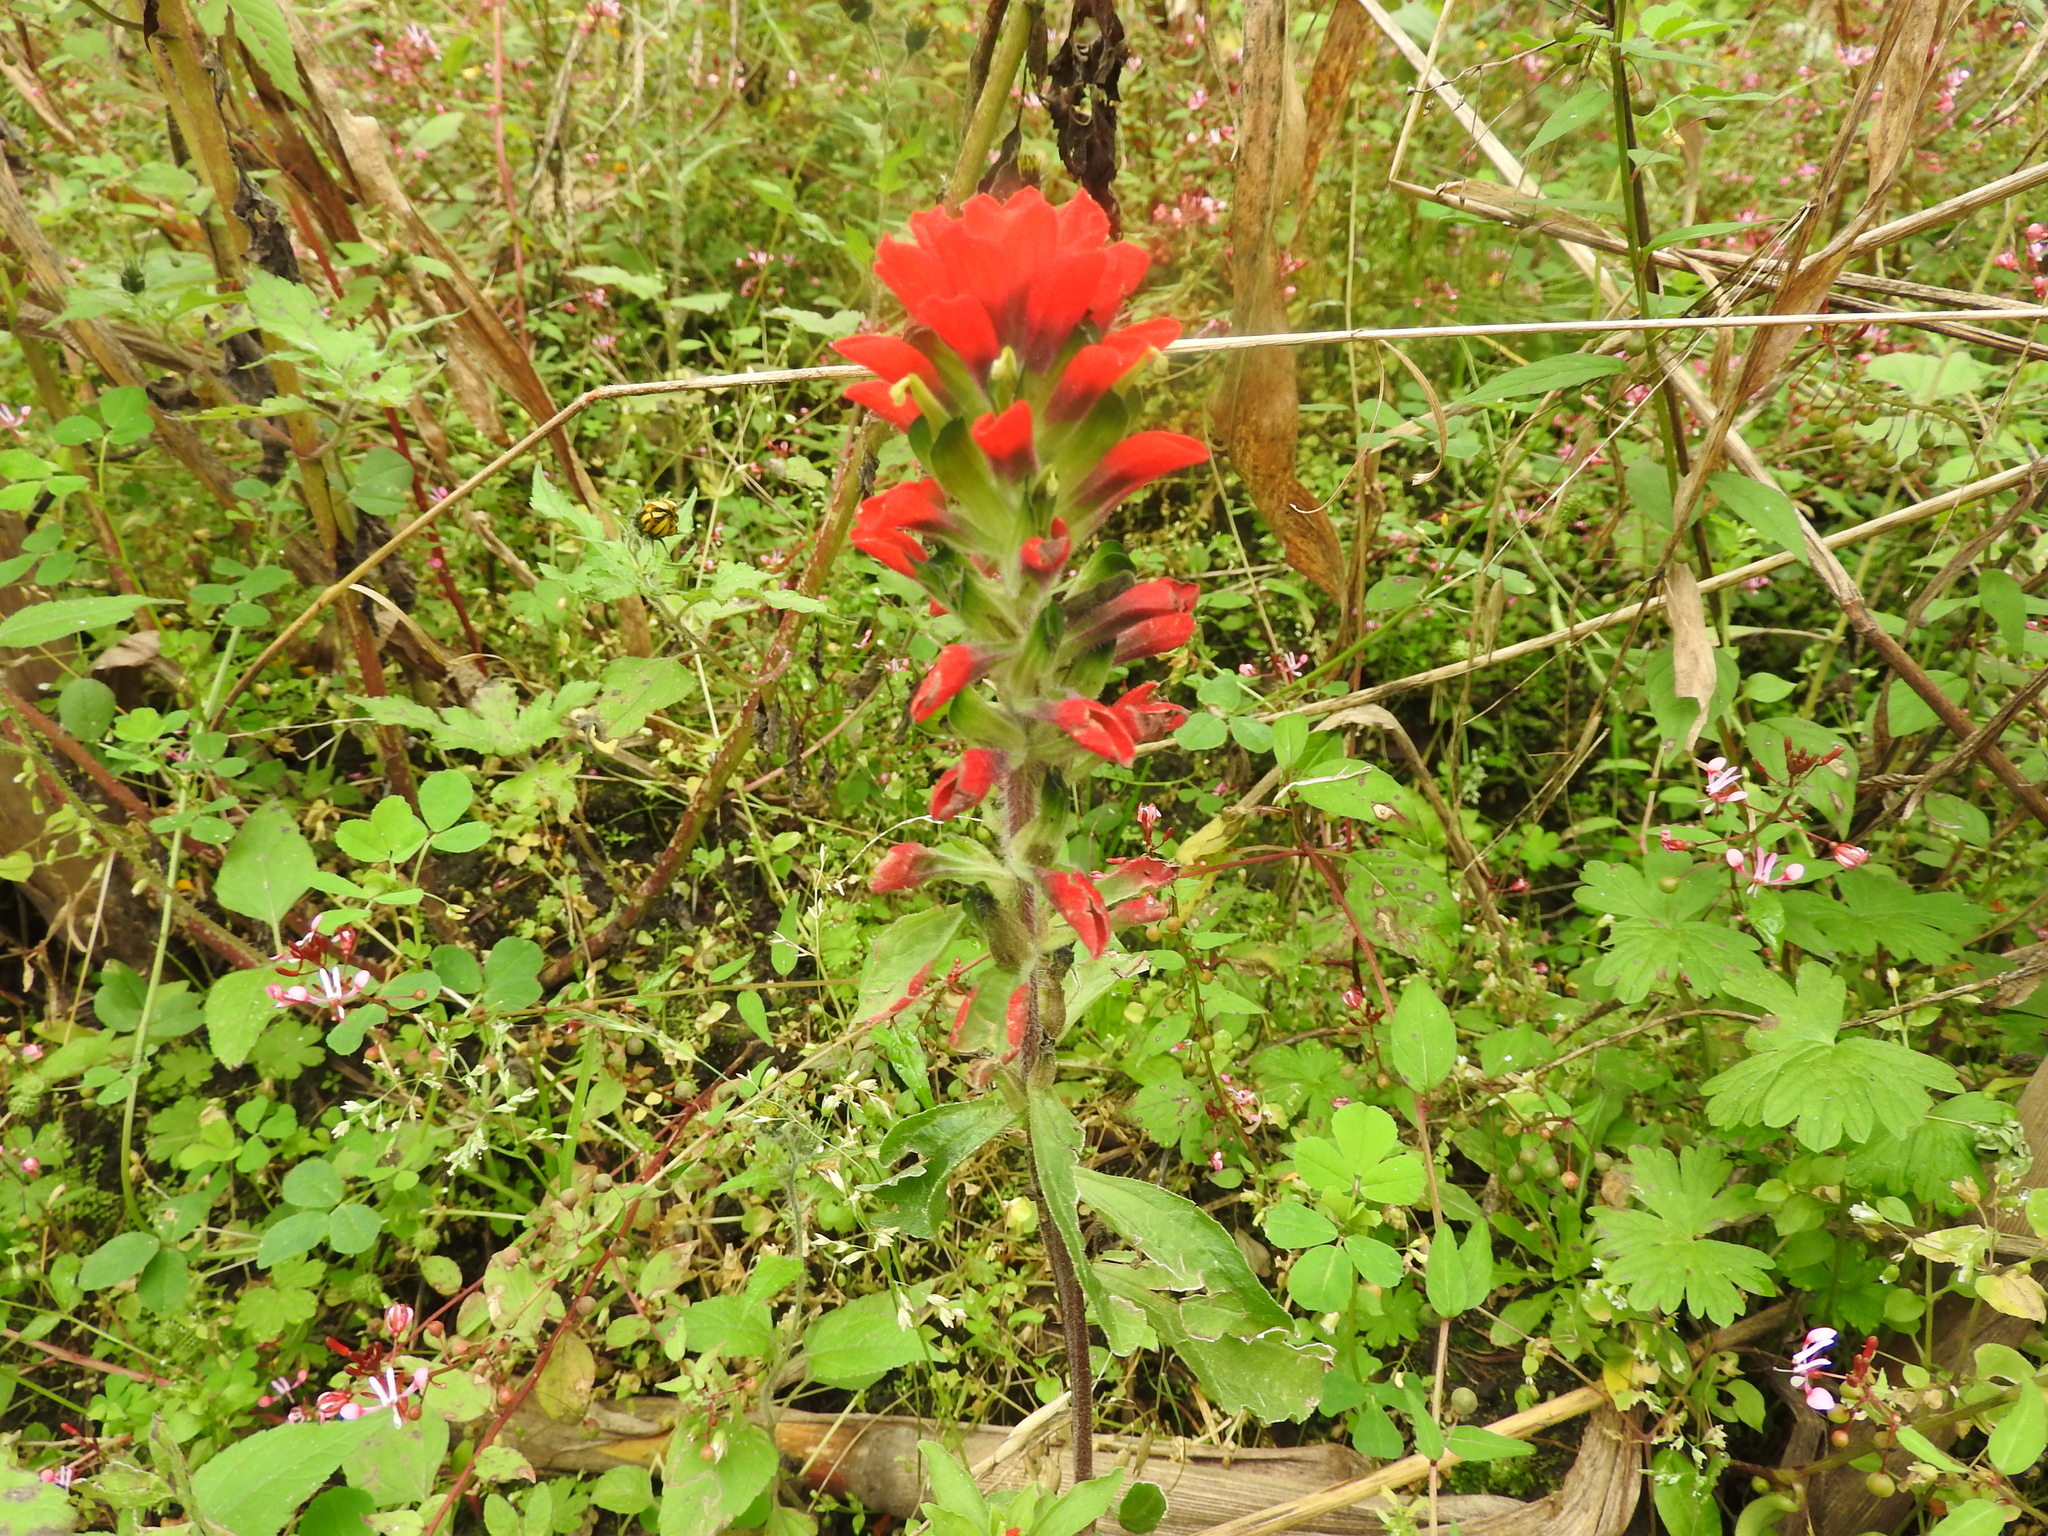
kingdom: Plantae
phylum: Tracheophyta
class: Magnoliopsida
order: Lamiales
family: Orobanchaceae
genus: Castilleja
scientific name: Castilleja arvensis
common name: Indian paintbrush
